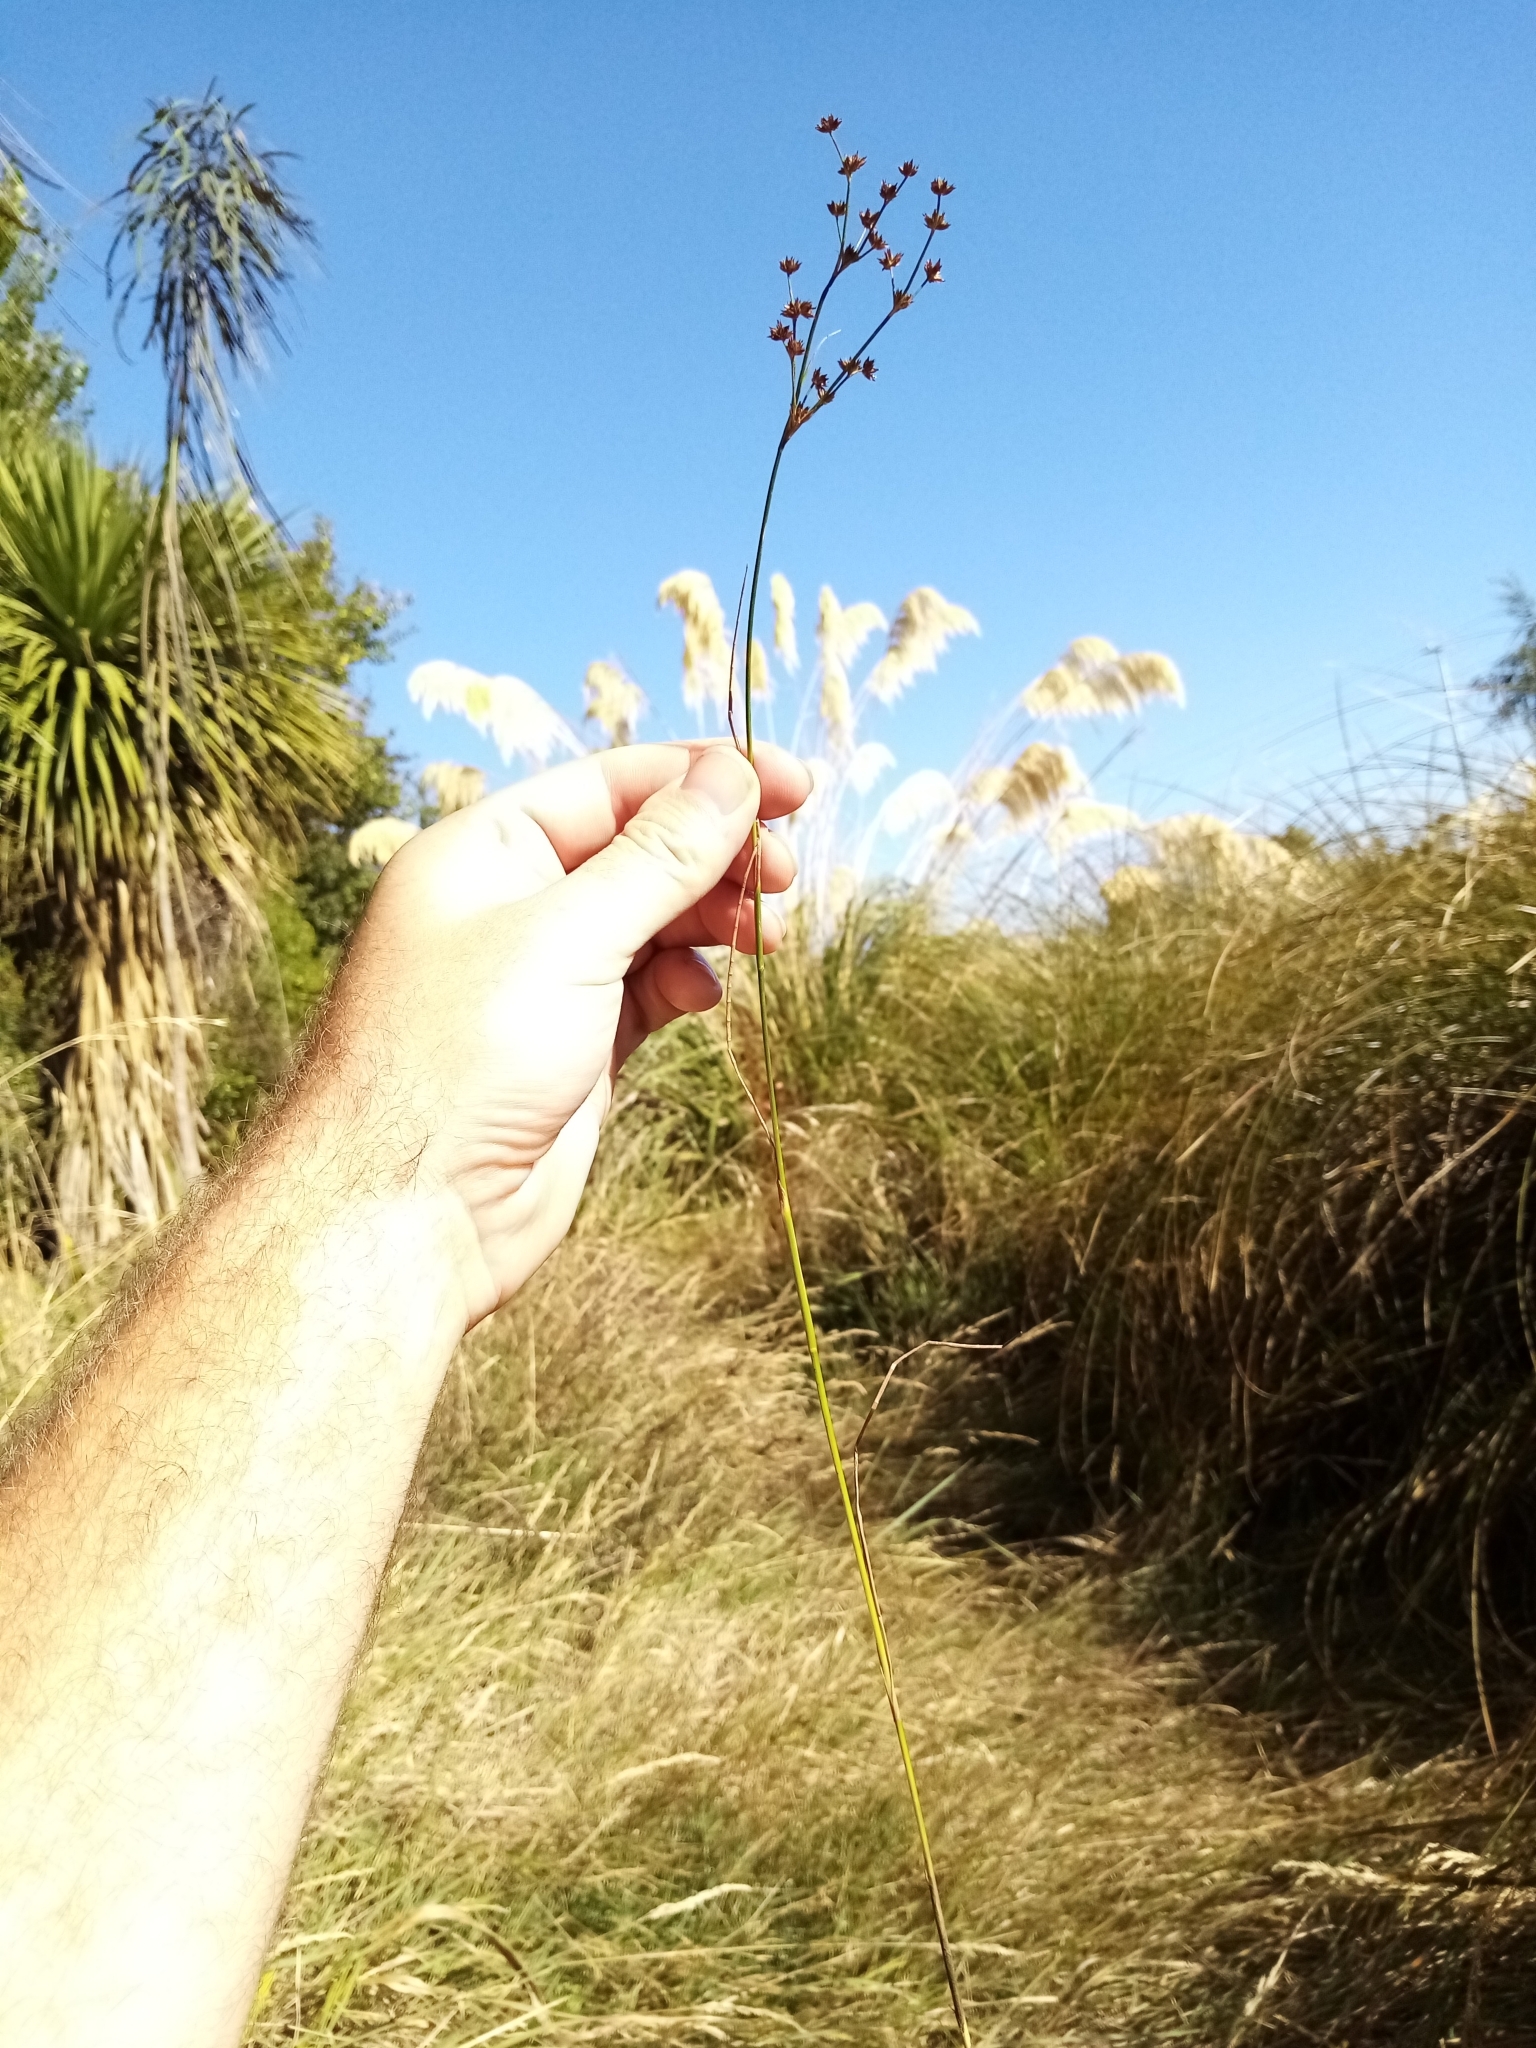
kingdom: Plantae
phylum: Tracheophyta
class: Liliopsida
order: Poales
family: Juncaceae
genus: Juncus
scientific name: Juncus articulatus
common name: Jointed rush
